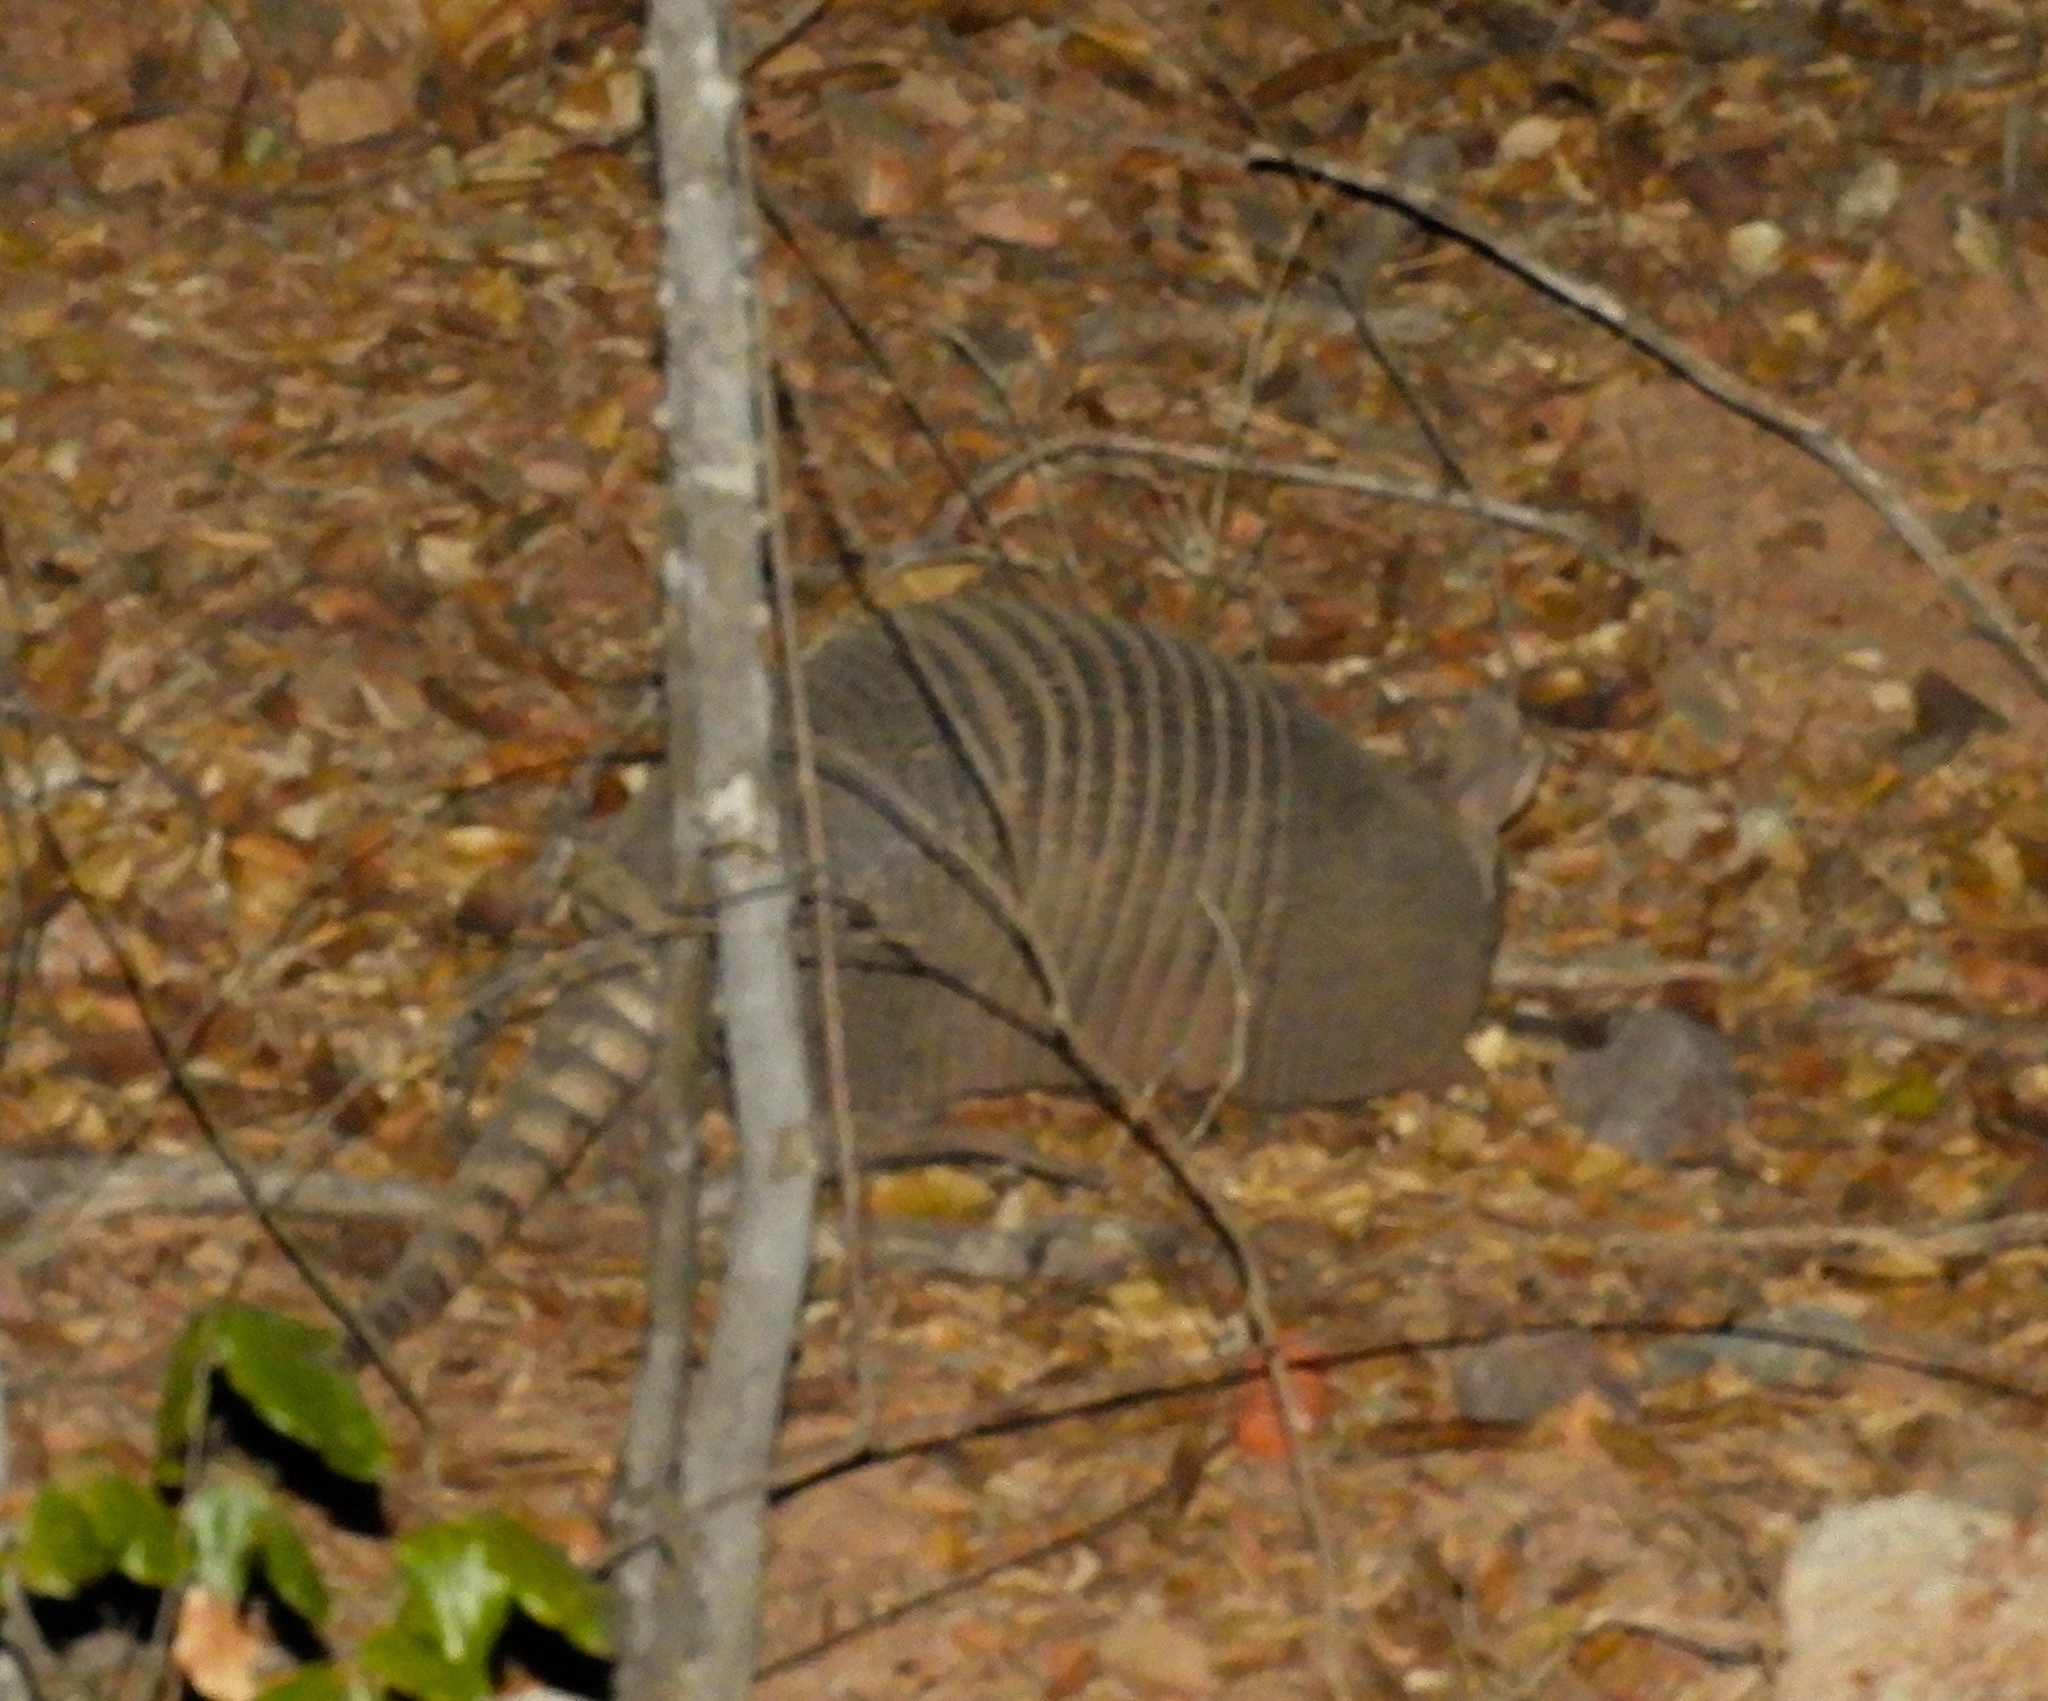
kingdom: Animalia
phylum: Chordata
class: Mammalia
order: Cingulata
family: Dasypodidae
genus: Dasypus
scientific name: Dasypus novemcinctus
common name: Nine-banded armadillo
